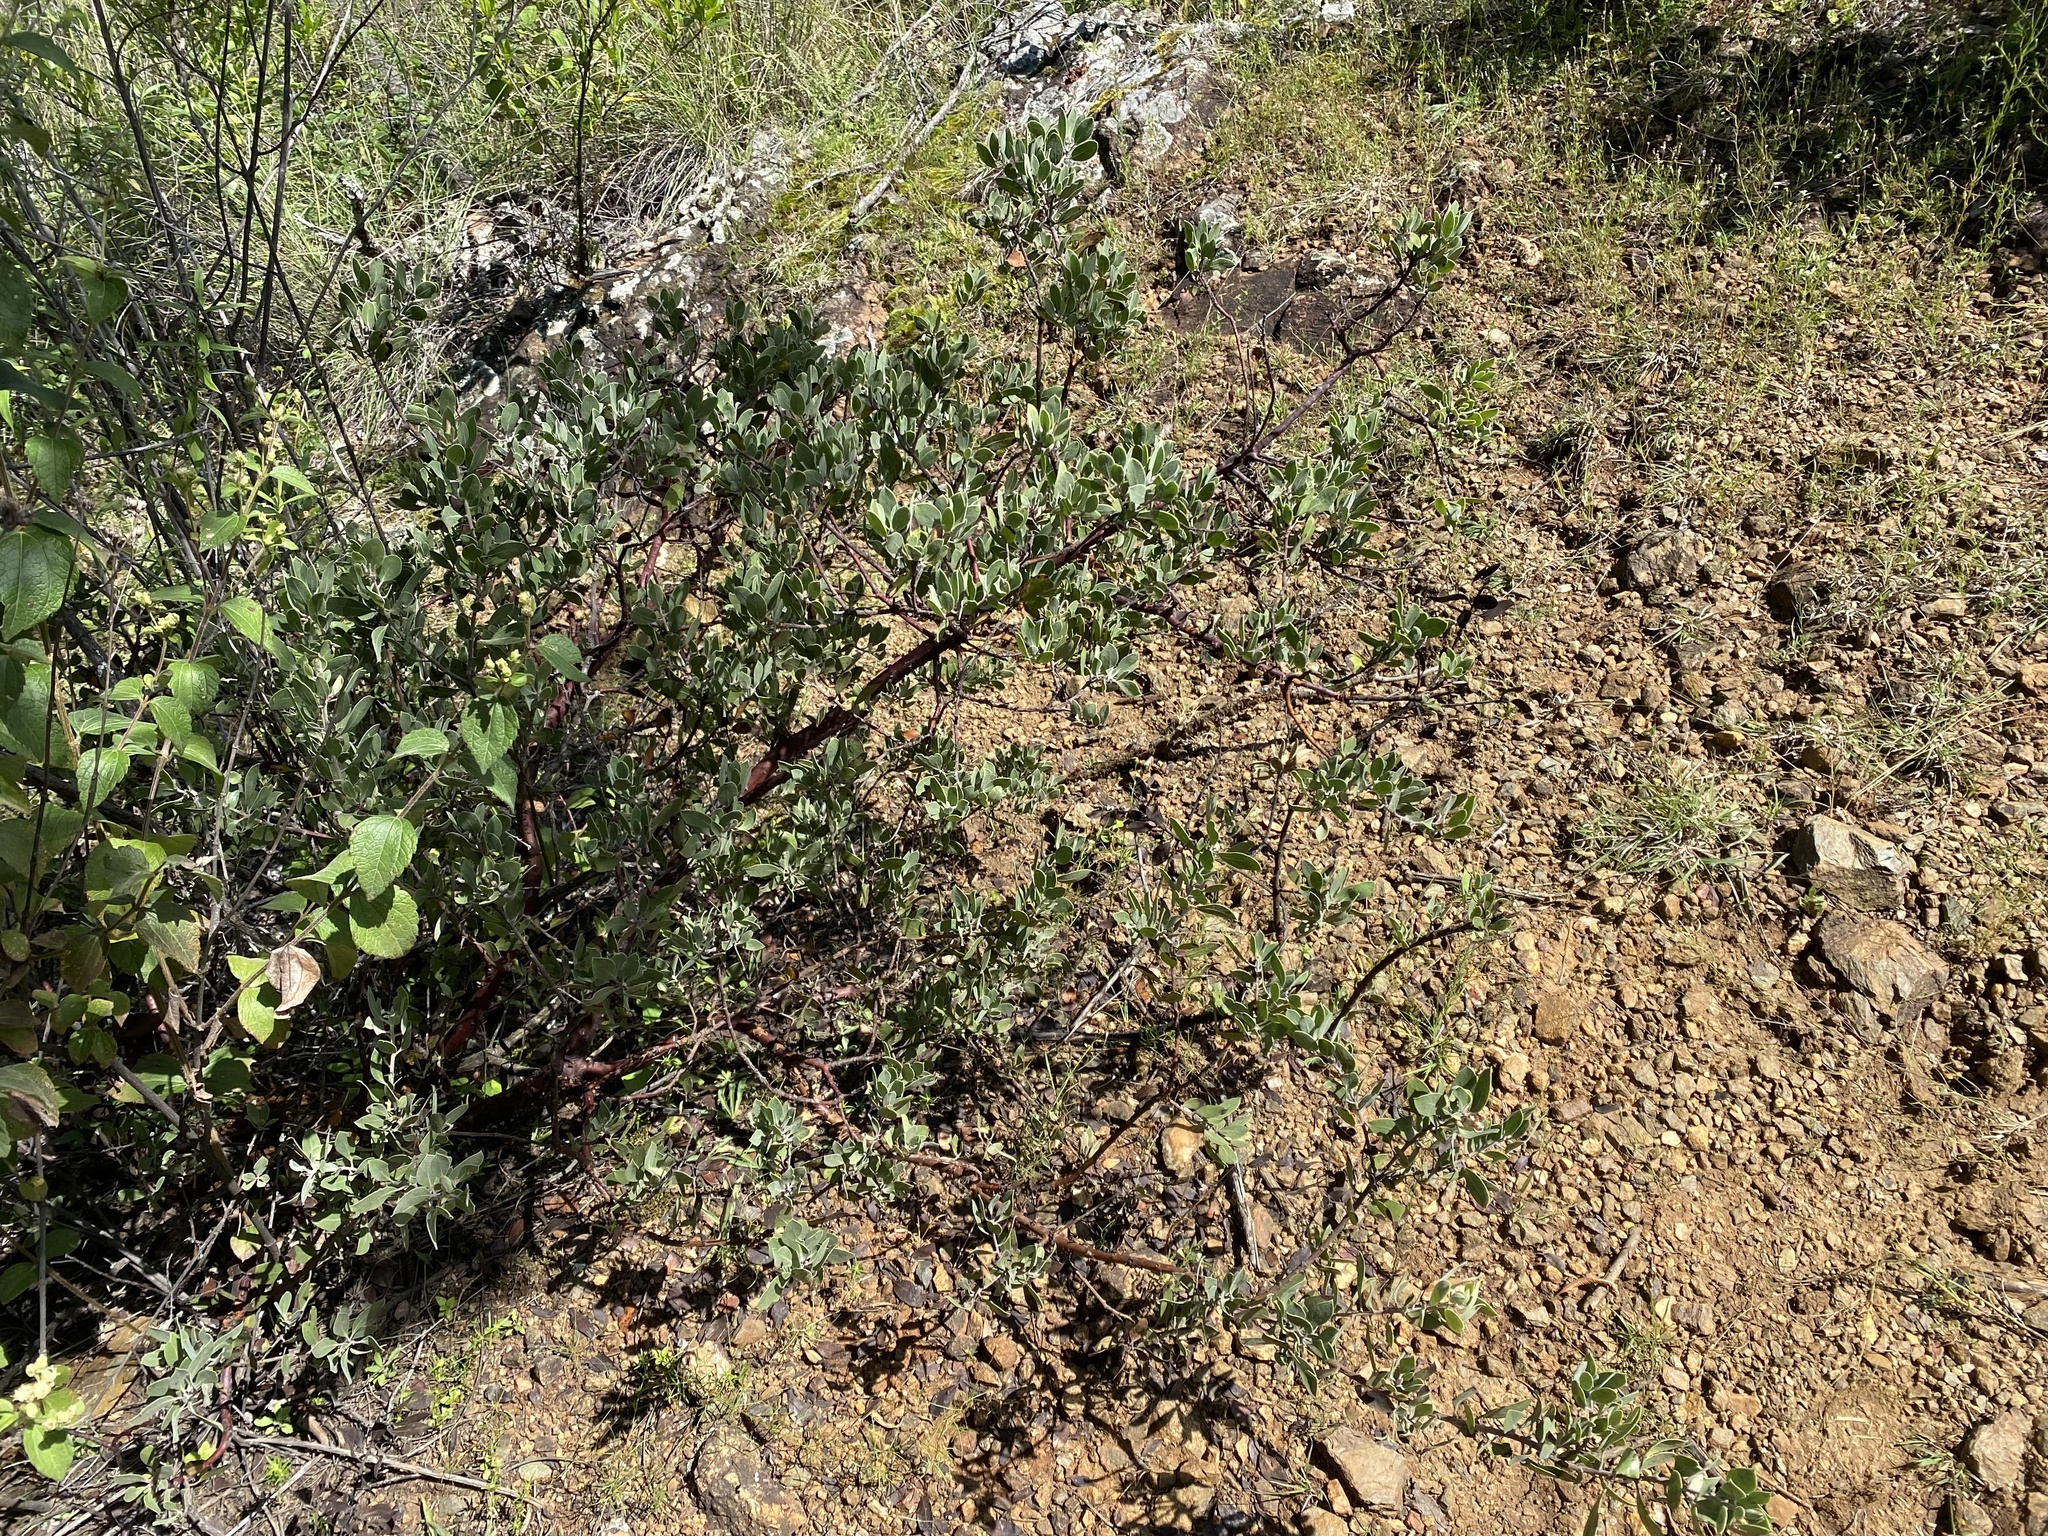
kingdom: Plantae
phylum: Tracheophyta
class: Magnoliopsida
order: Ericales
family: Ericaceae
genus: Arctostaphylos
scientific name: Arctostaphylos pungens
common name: Mexican manzanita
